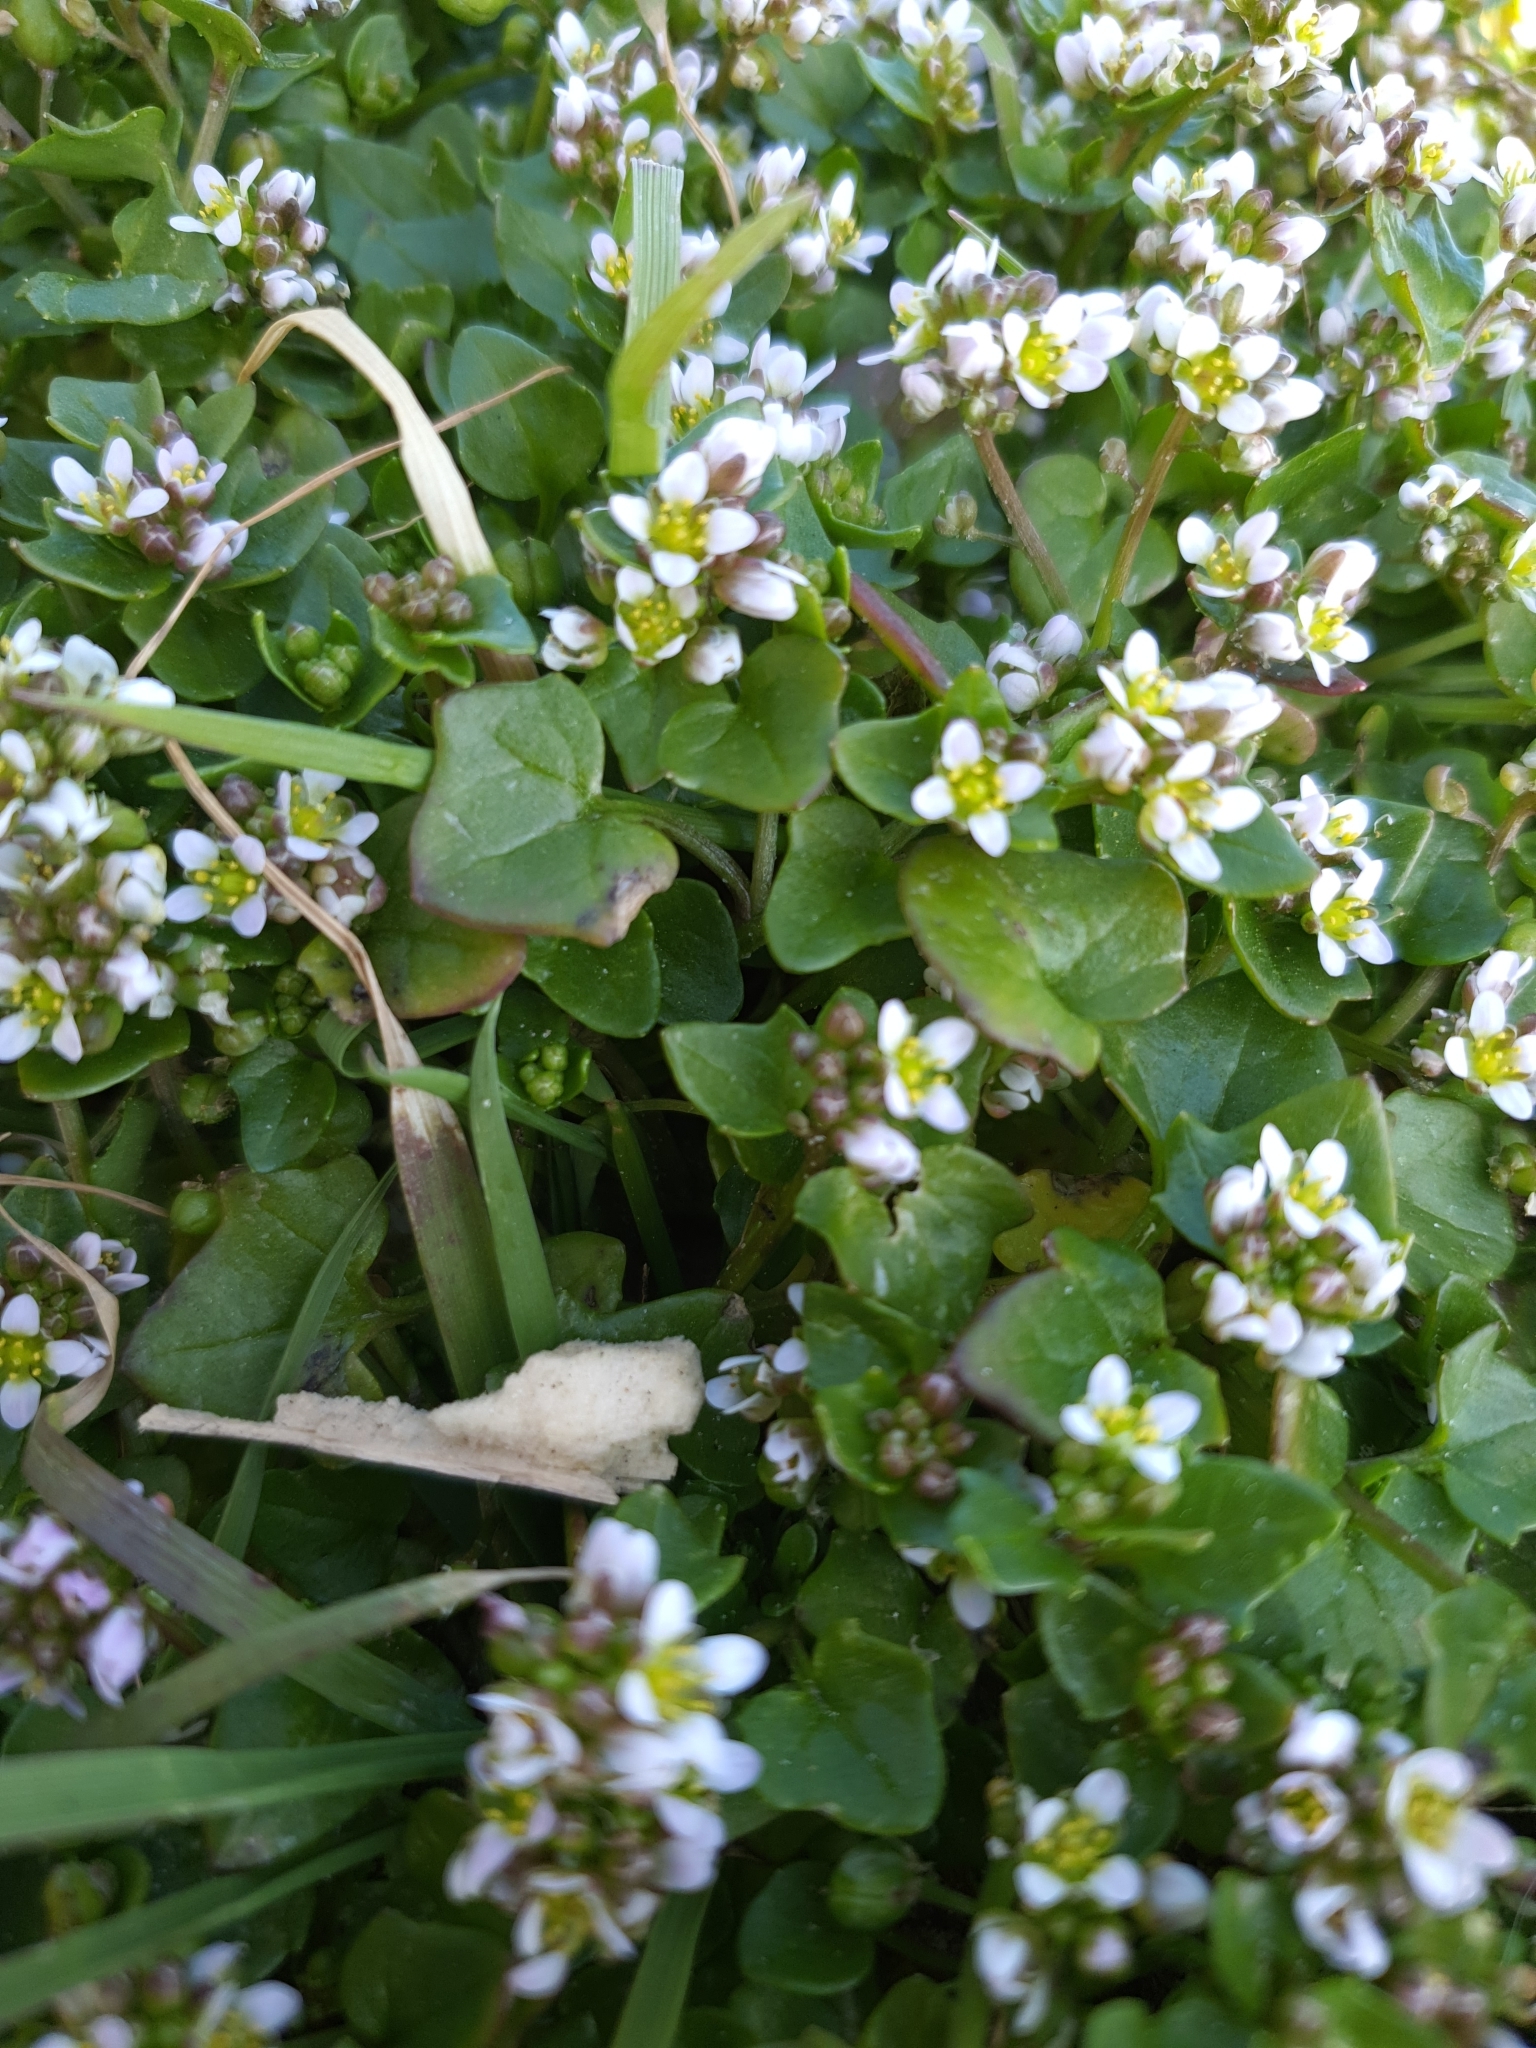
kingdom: Plantae
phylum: Tracheophyta
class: Magnoliopsida
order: Brassicales
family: Brassicaceae
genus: Cochlearia
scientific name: Cochlearia danica
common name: Early scurvygrass
